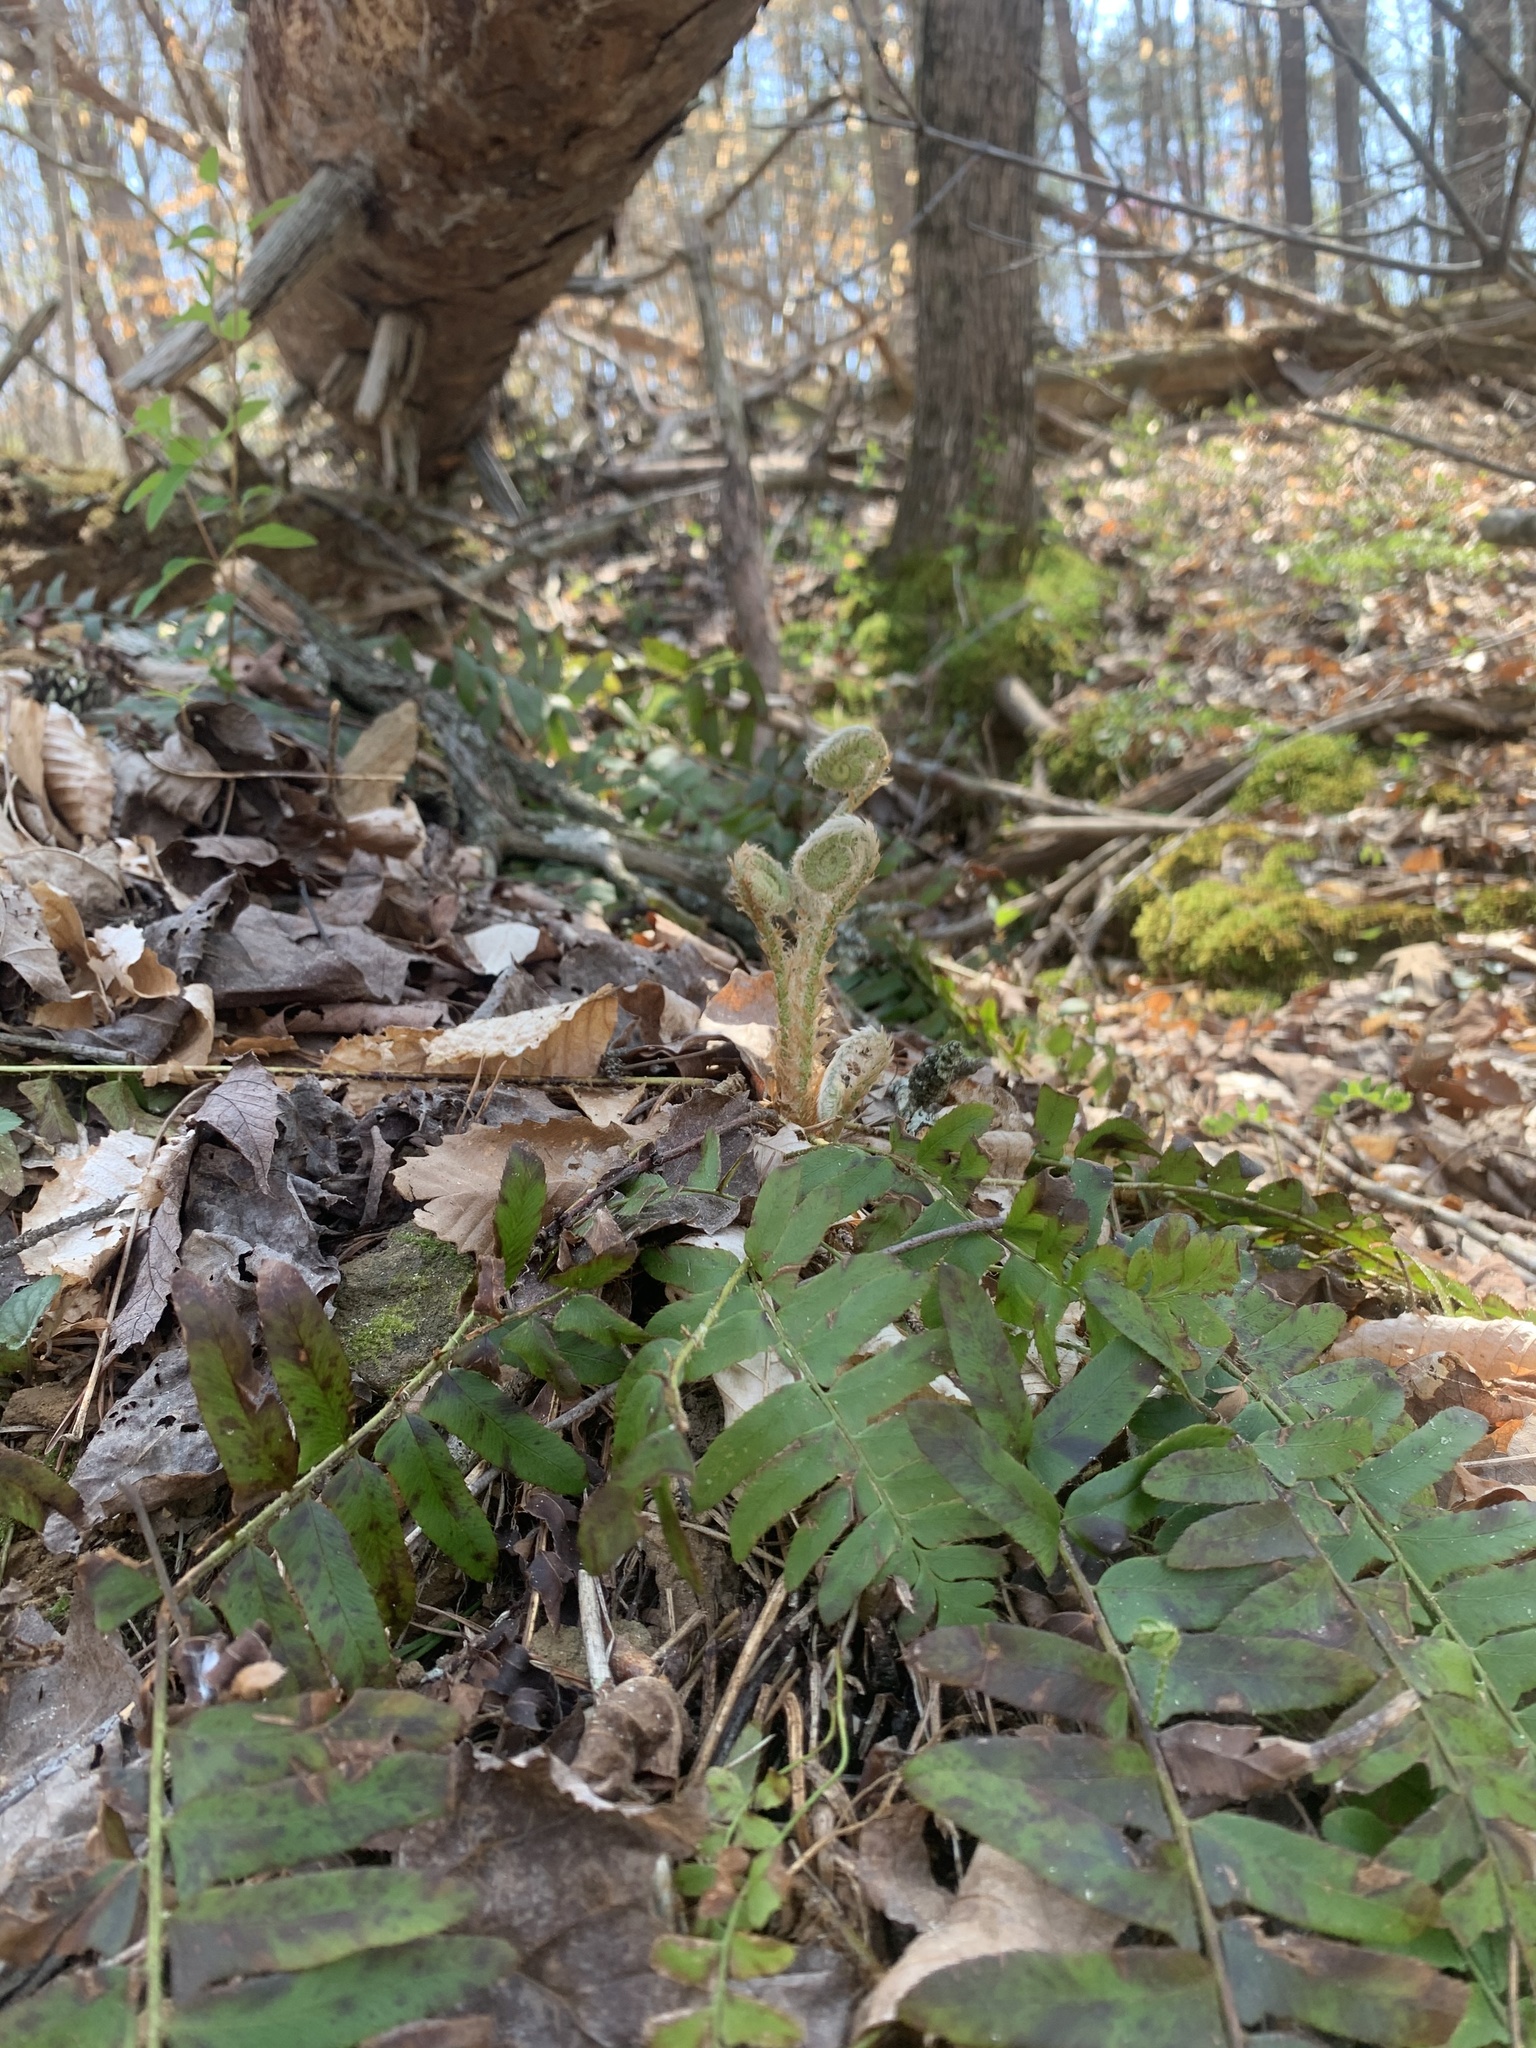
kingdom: Plantae
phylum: Tracheophyta
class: Polypodiopsida
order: Polypodiales
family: Dryopteridaceae
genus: Polystichum
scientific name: Polystichum acrostichoides
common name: Christmas fern
